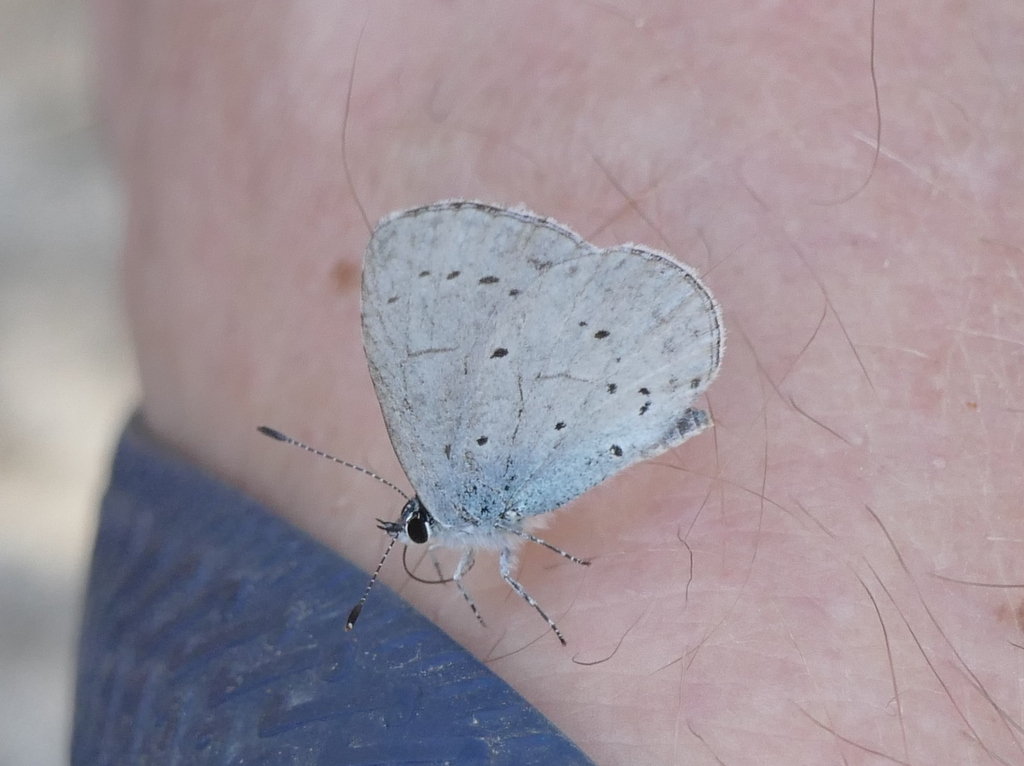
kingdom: Animalia
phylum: Arthropoda
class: Insecta
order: Lepidoptera
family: Lycaenidae
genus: Celastrina
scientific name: Celastrina argiolus
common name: Holly blue
